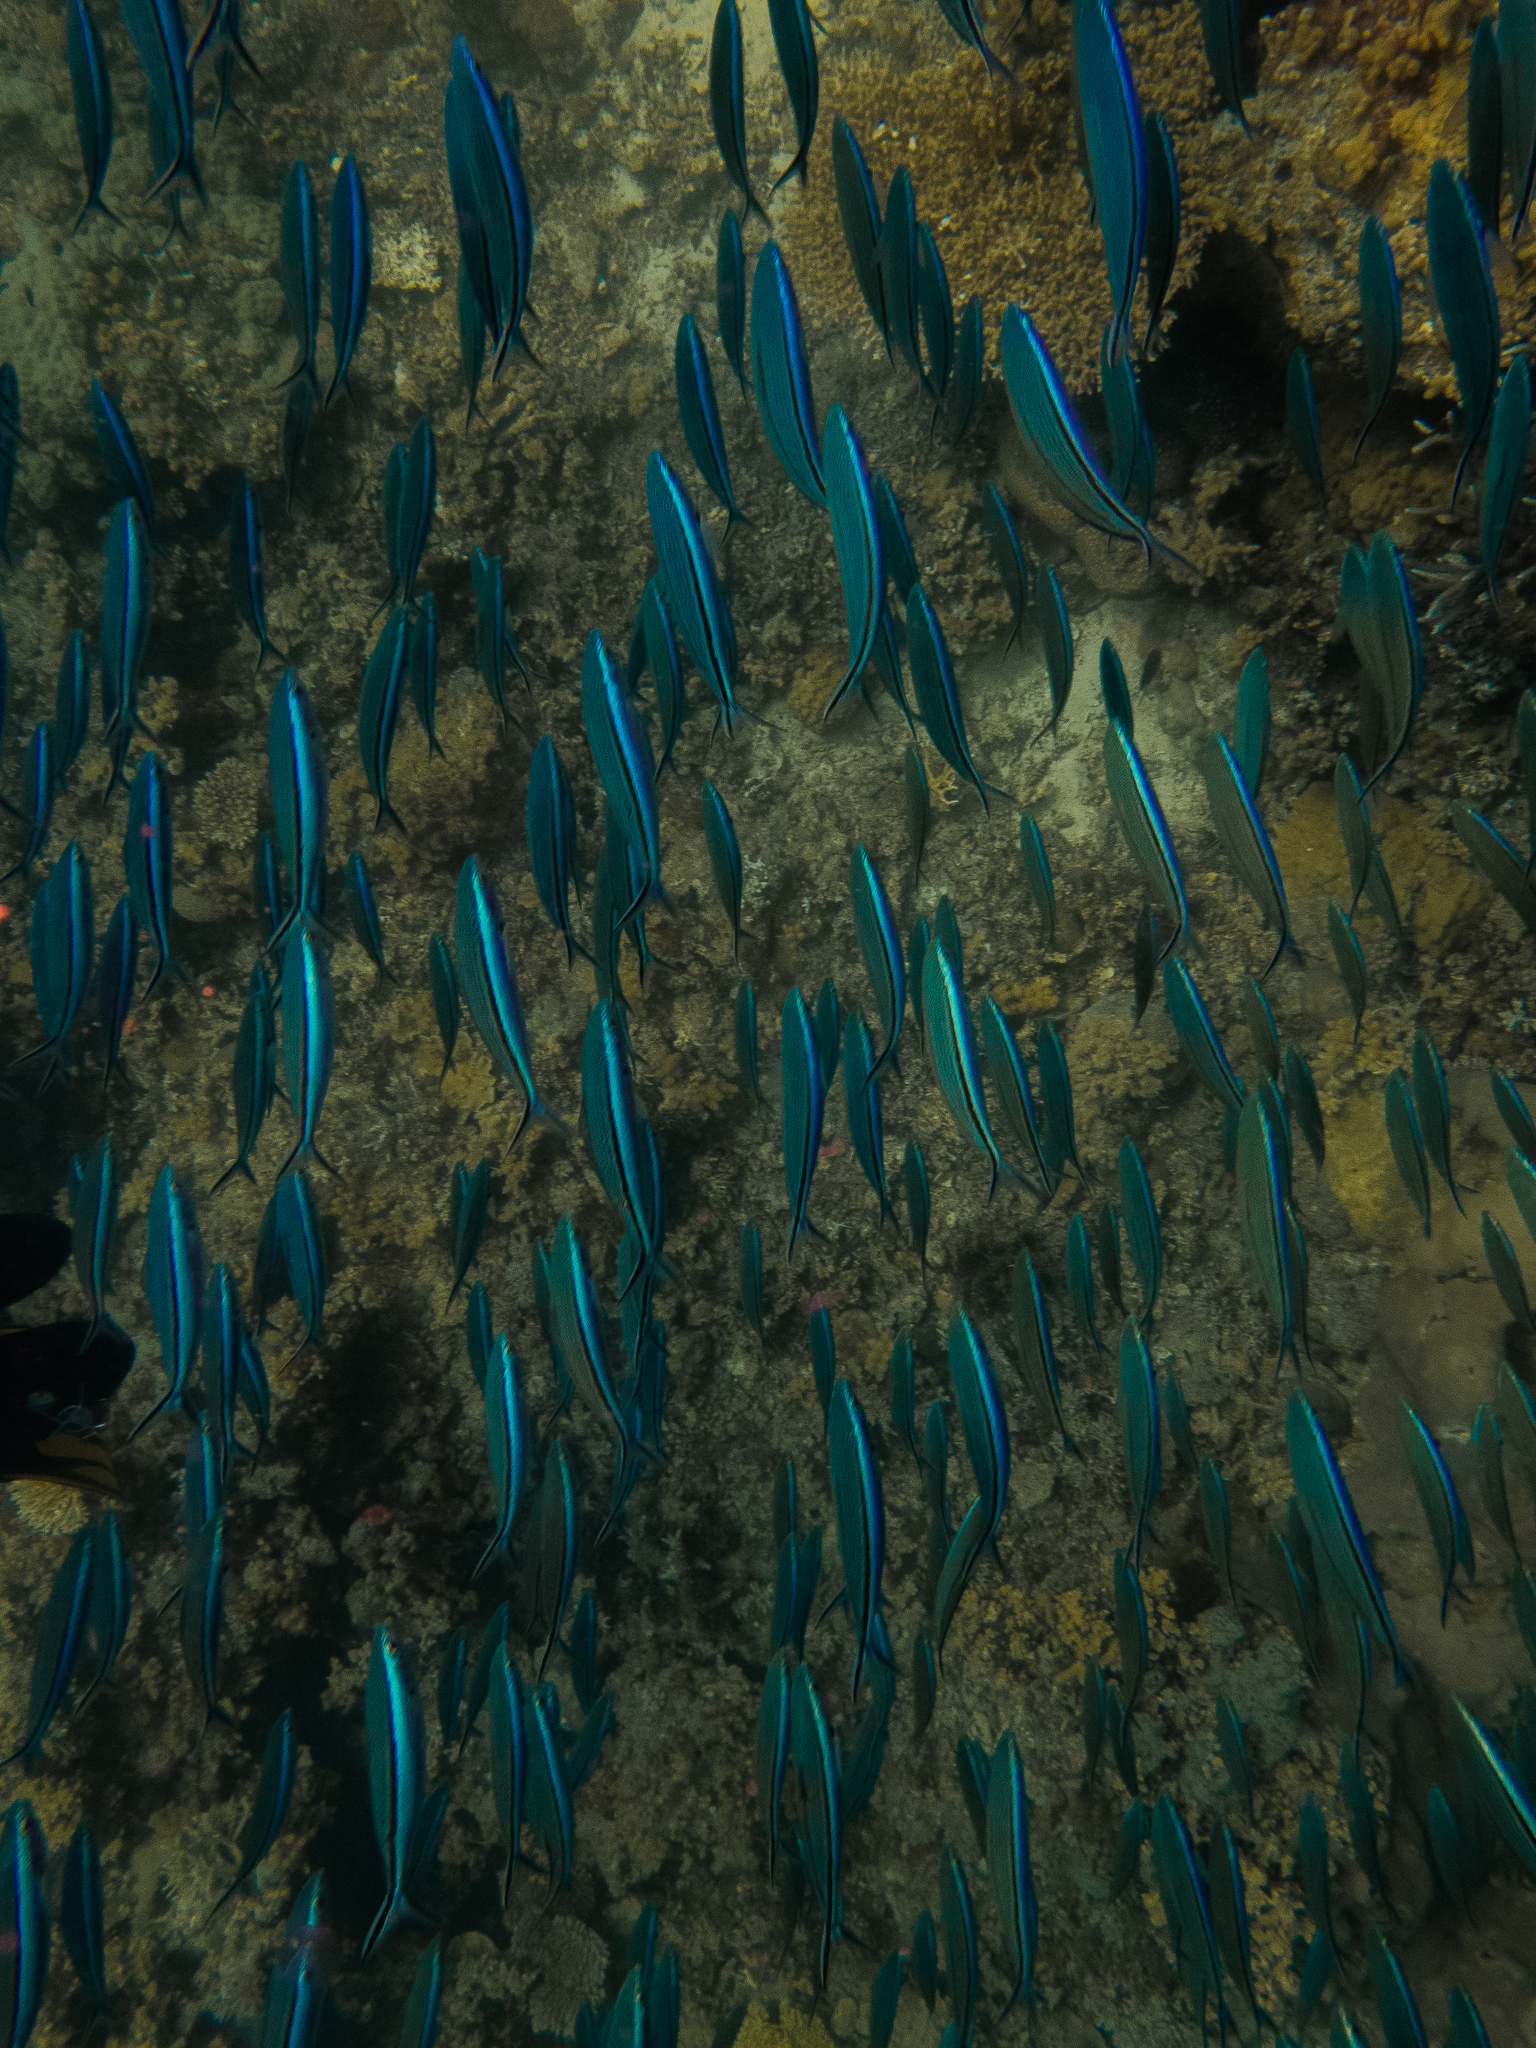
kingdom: Animalia
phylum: Chordata
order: Perciformes
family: Caesionidae
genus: Pterocaesio
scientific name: Pterocaesio tile
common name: Dark-banded fusilier
